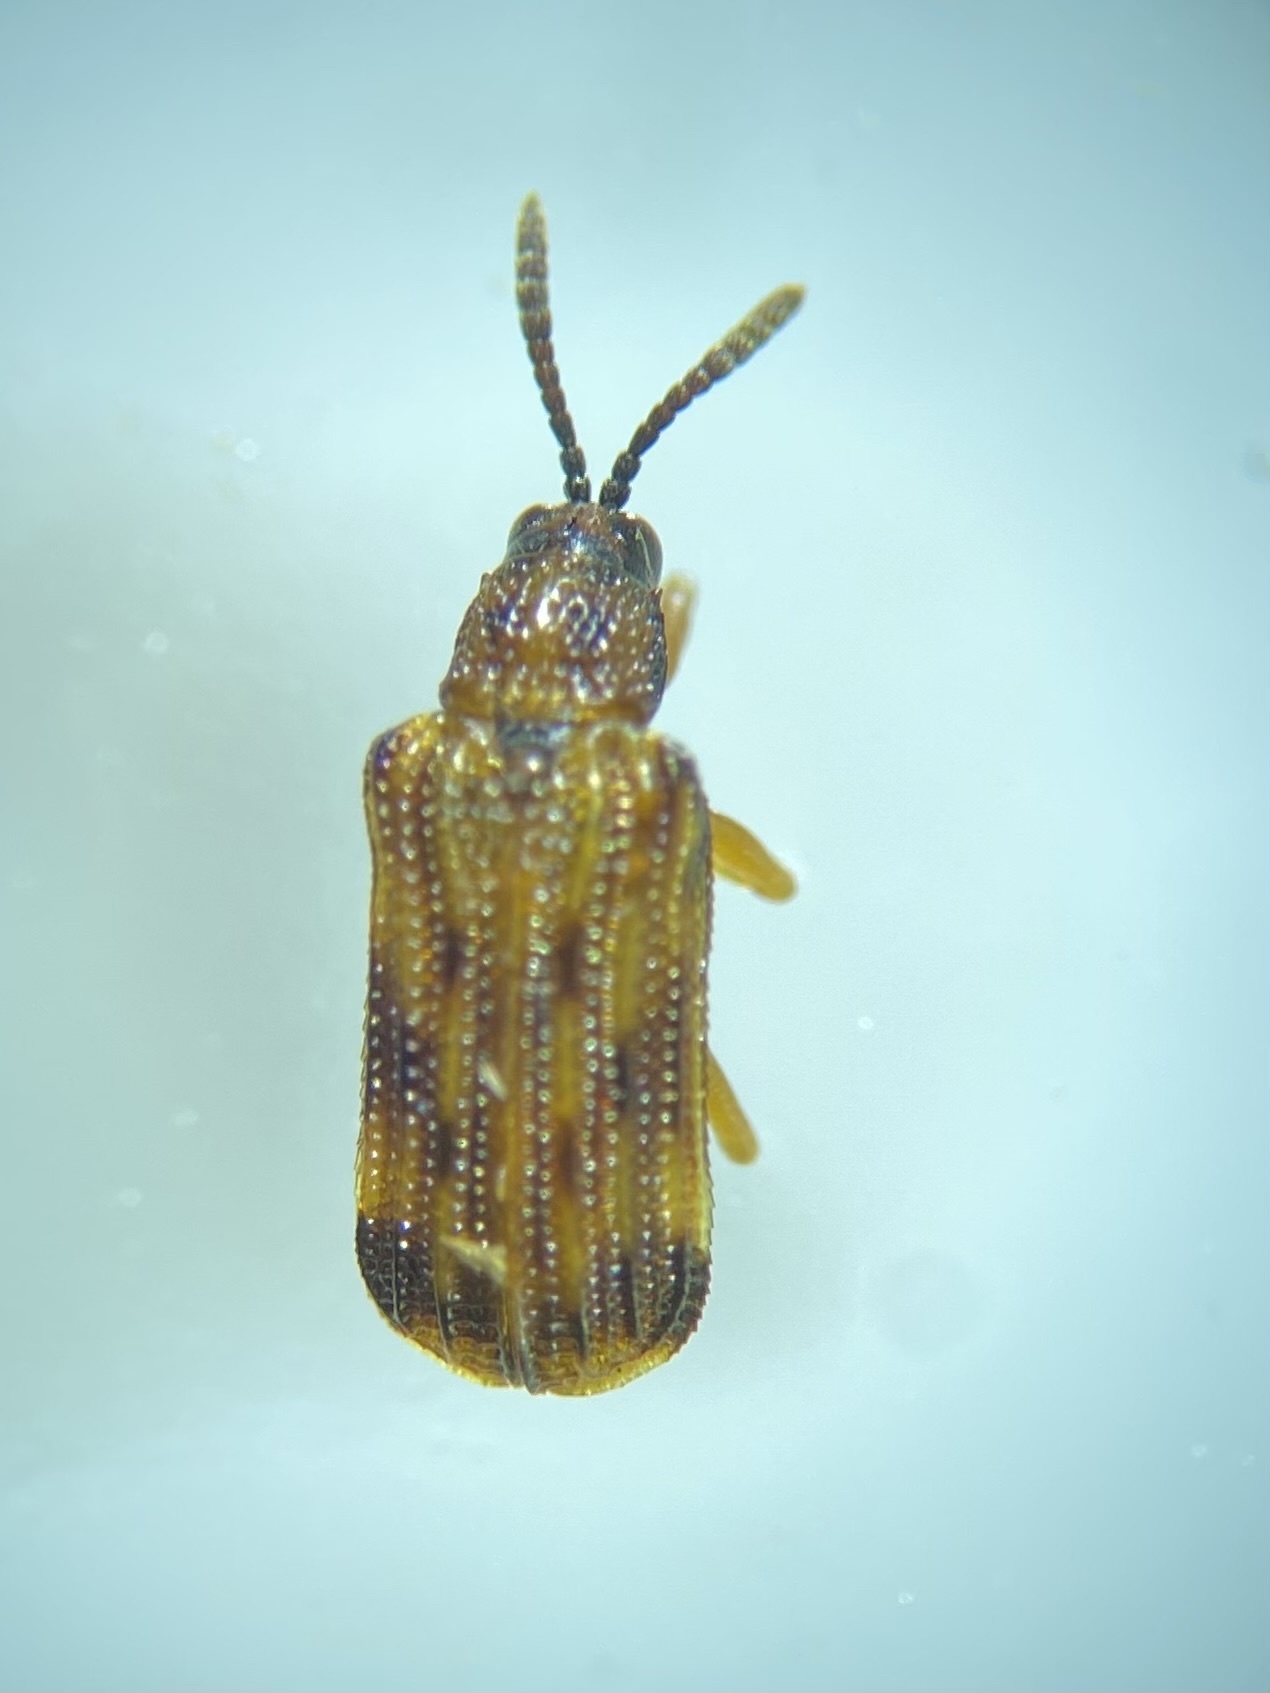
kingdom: Animalia
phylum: Arthropoda
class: Insecta
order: Coleoptera
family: Chrysomelidae
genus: Sumitrosis
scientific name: Sumitrosis inaequalis
